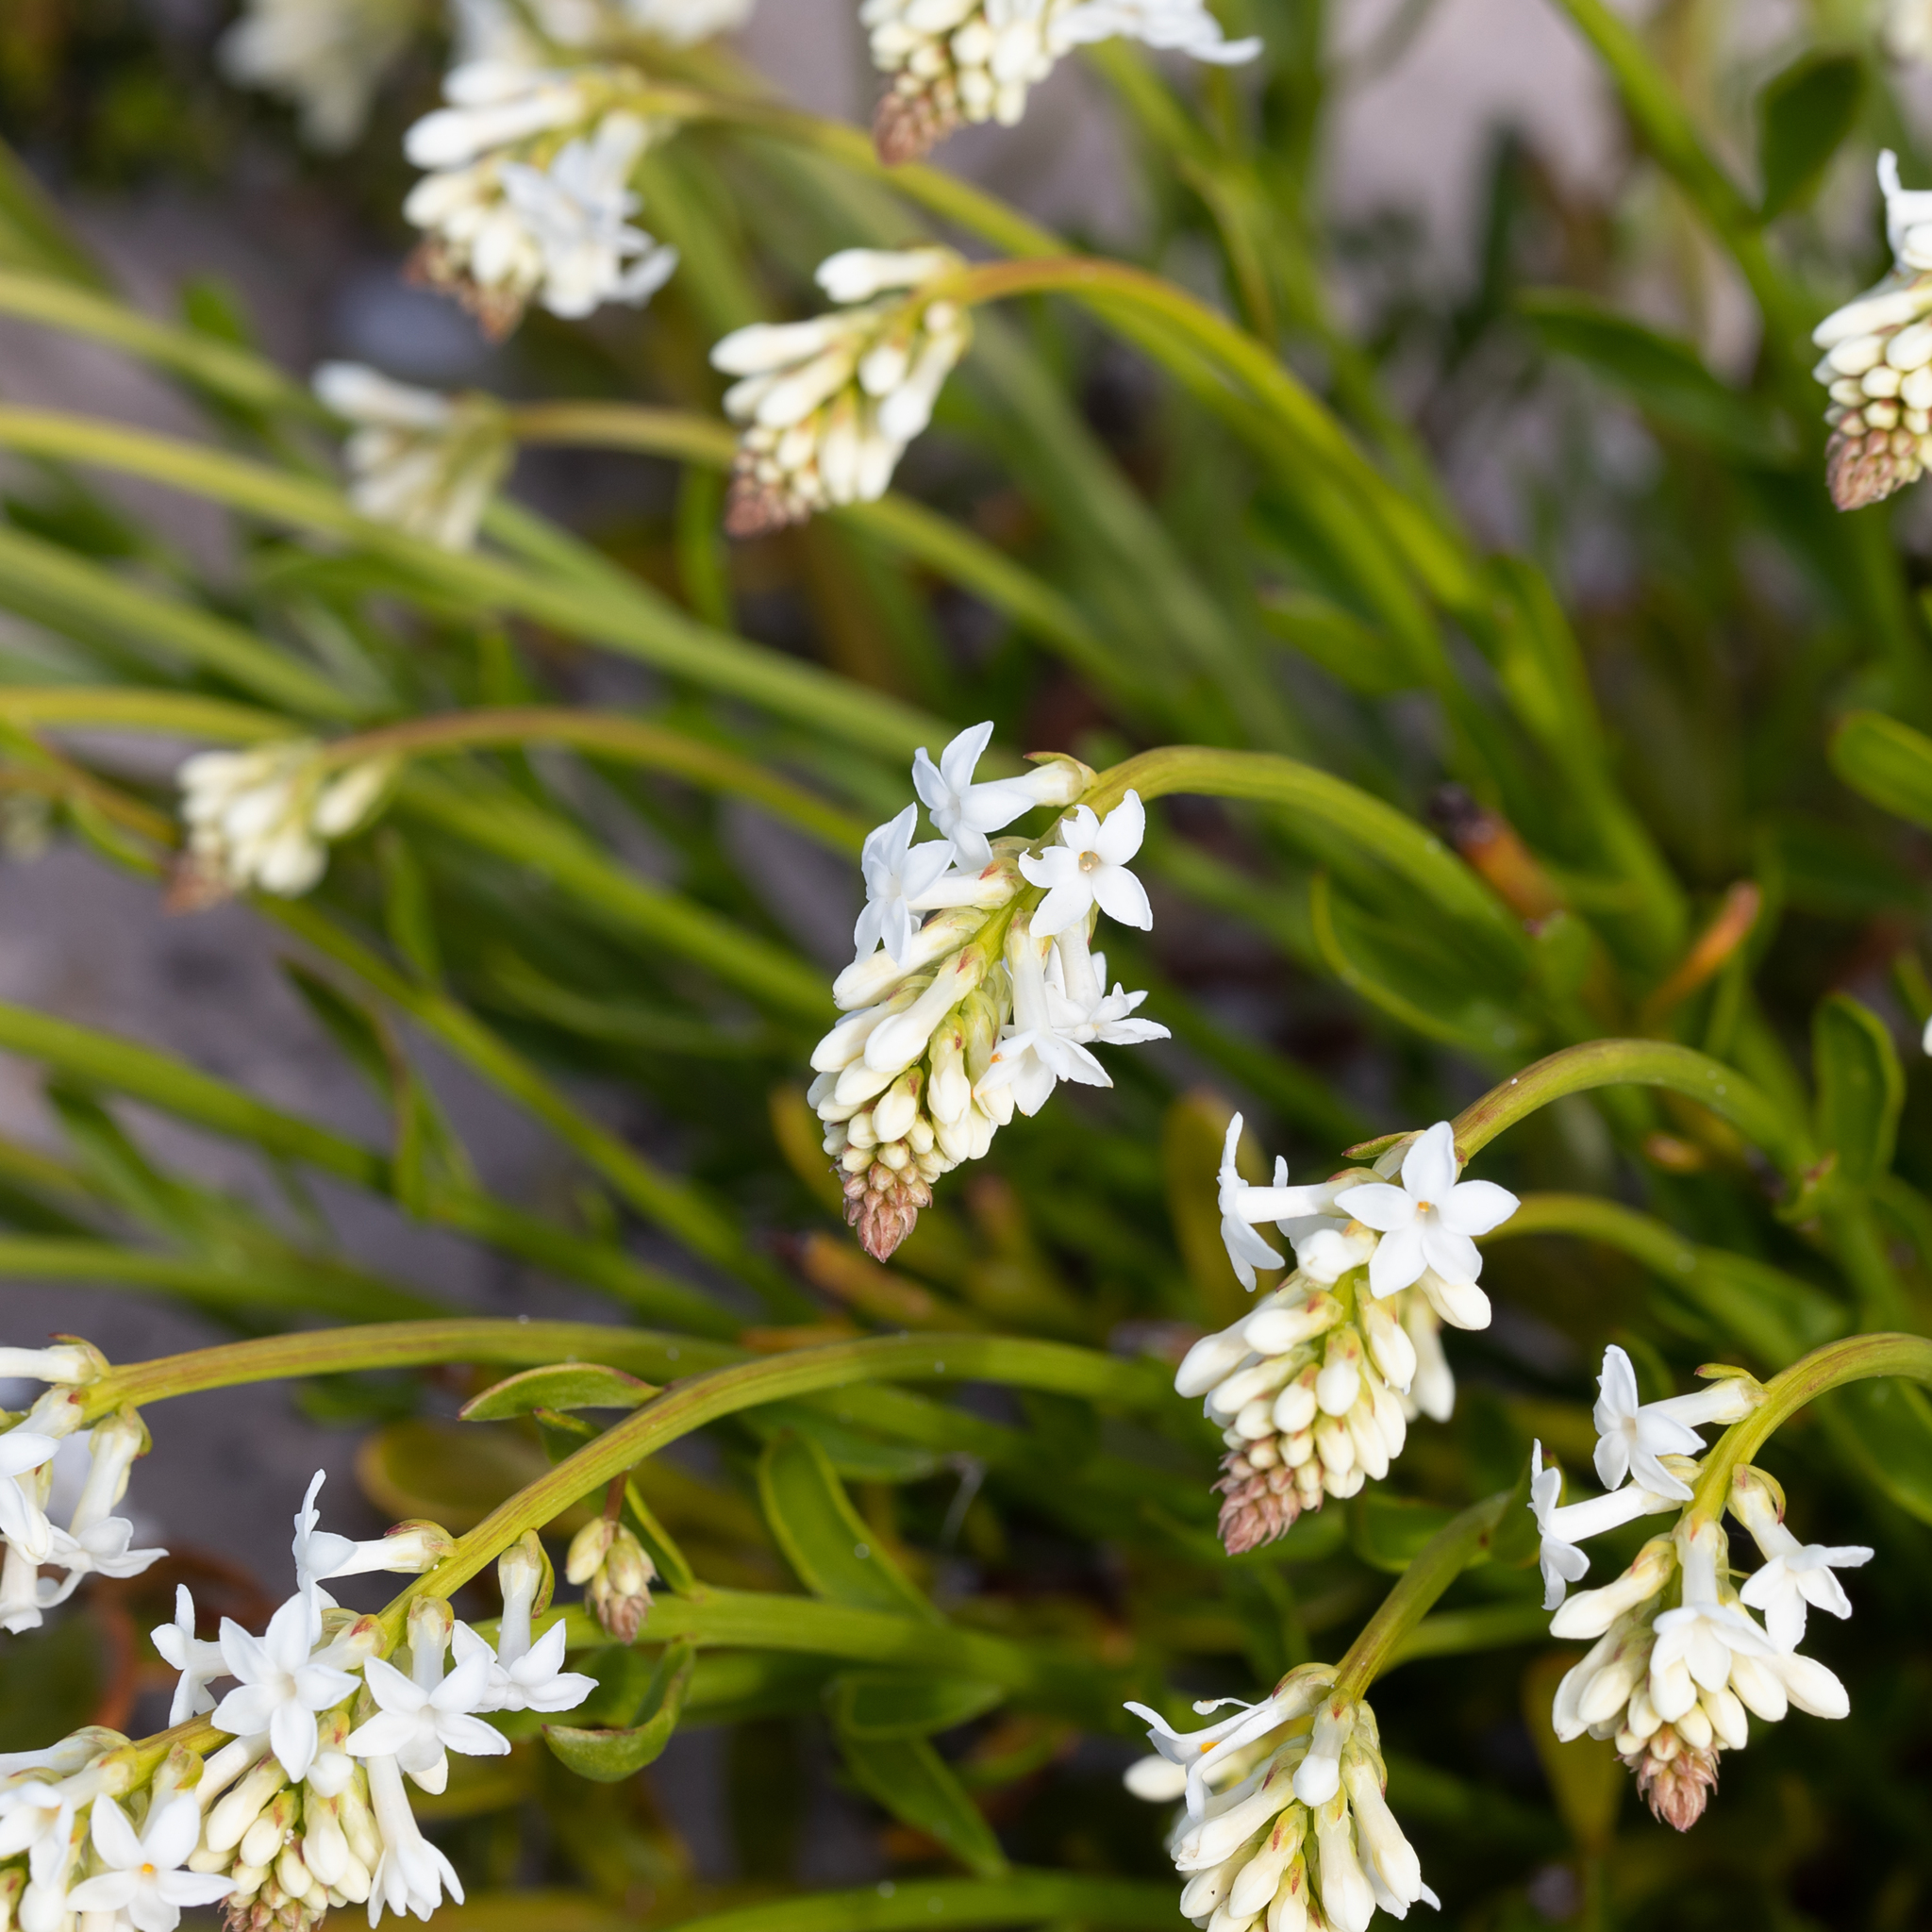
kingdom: Plantae
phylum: Tracheophyta
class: Magnoliopsida
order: Celastrales
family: Celastraceae
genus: Stackhousia
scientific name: Stackhousia spathulata
